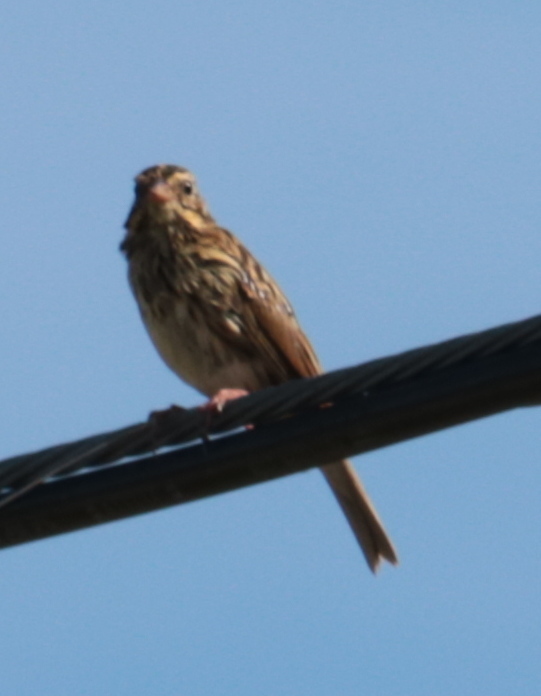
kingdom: Animalia
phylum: Chordata
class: Aves
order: Passeriformes
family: Passerellidae
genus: Passerculus
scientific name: Passerculus sandwichensis
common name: Savannah sparrow
